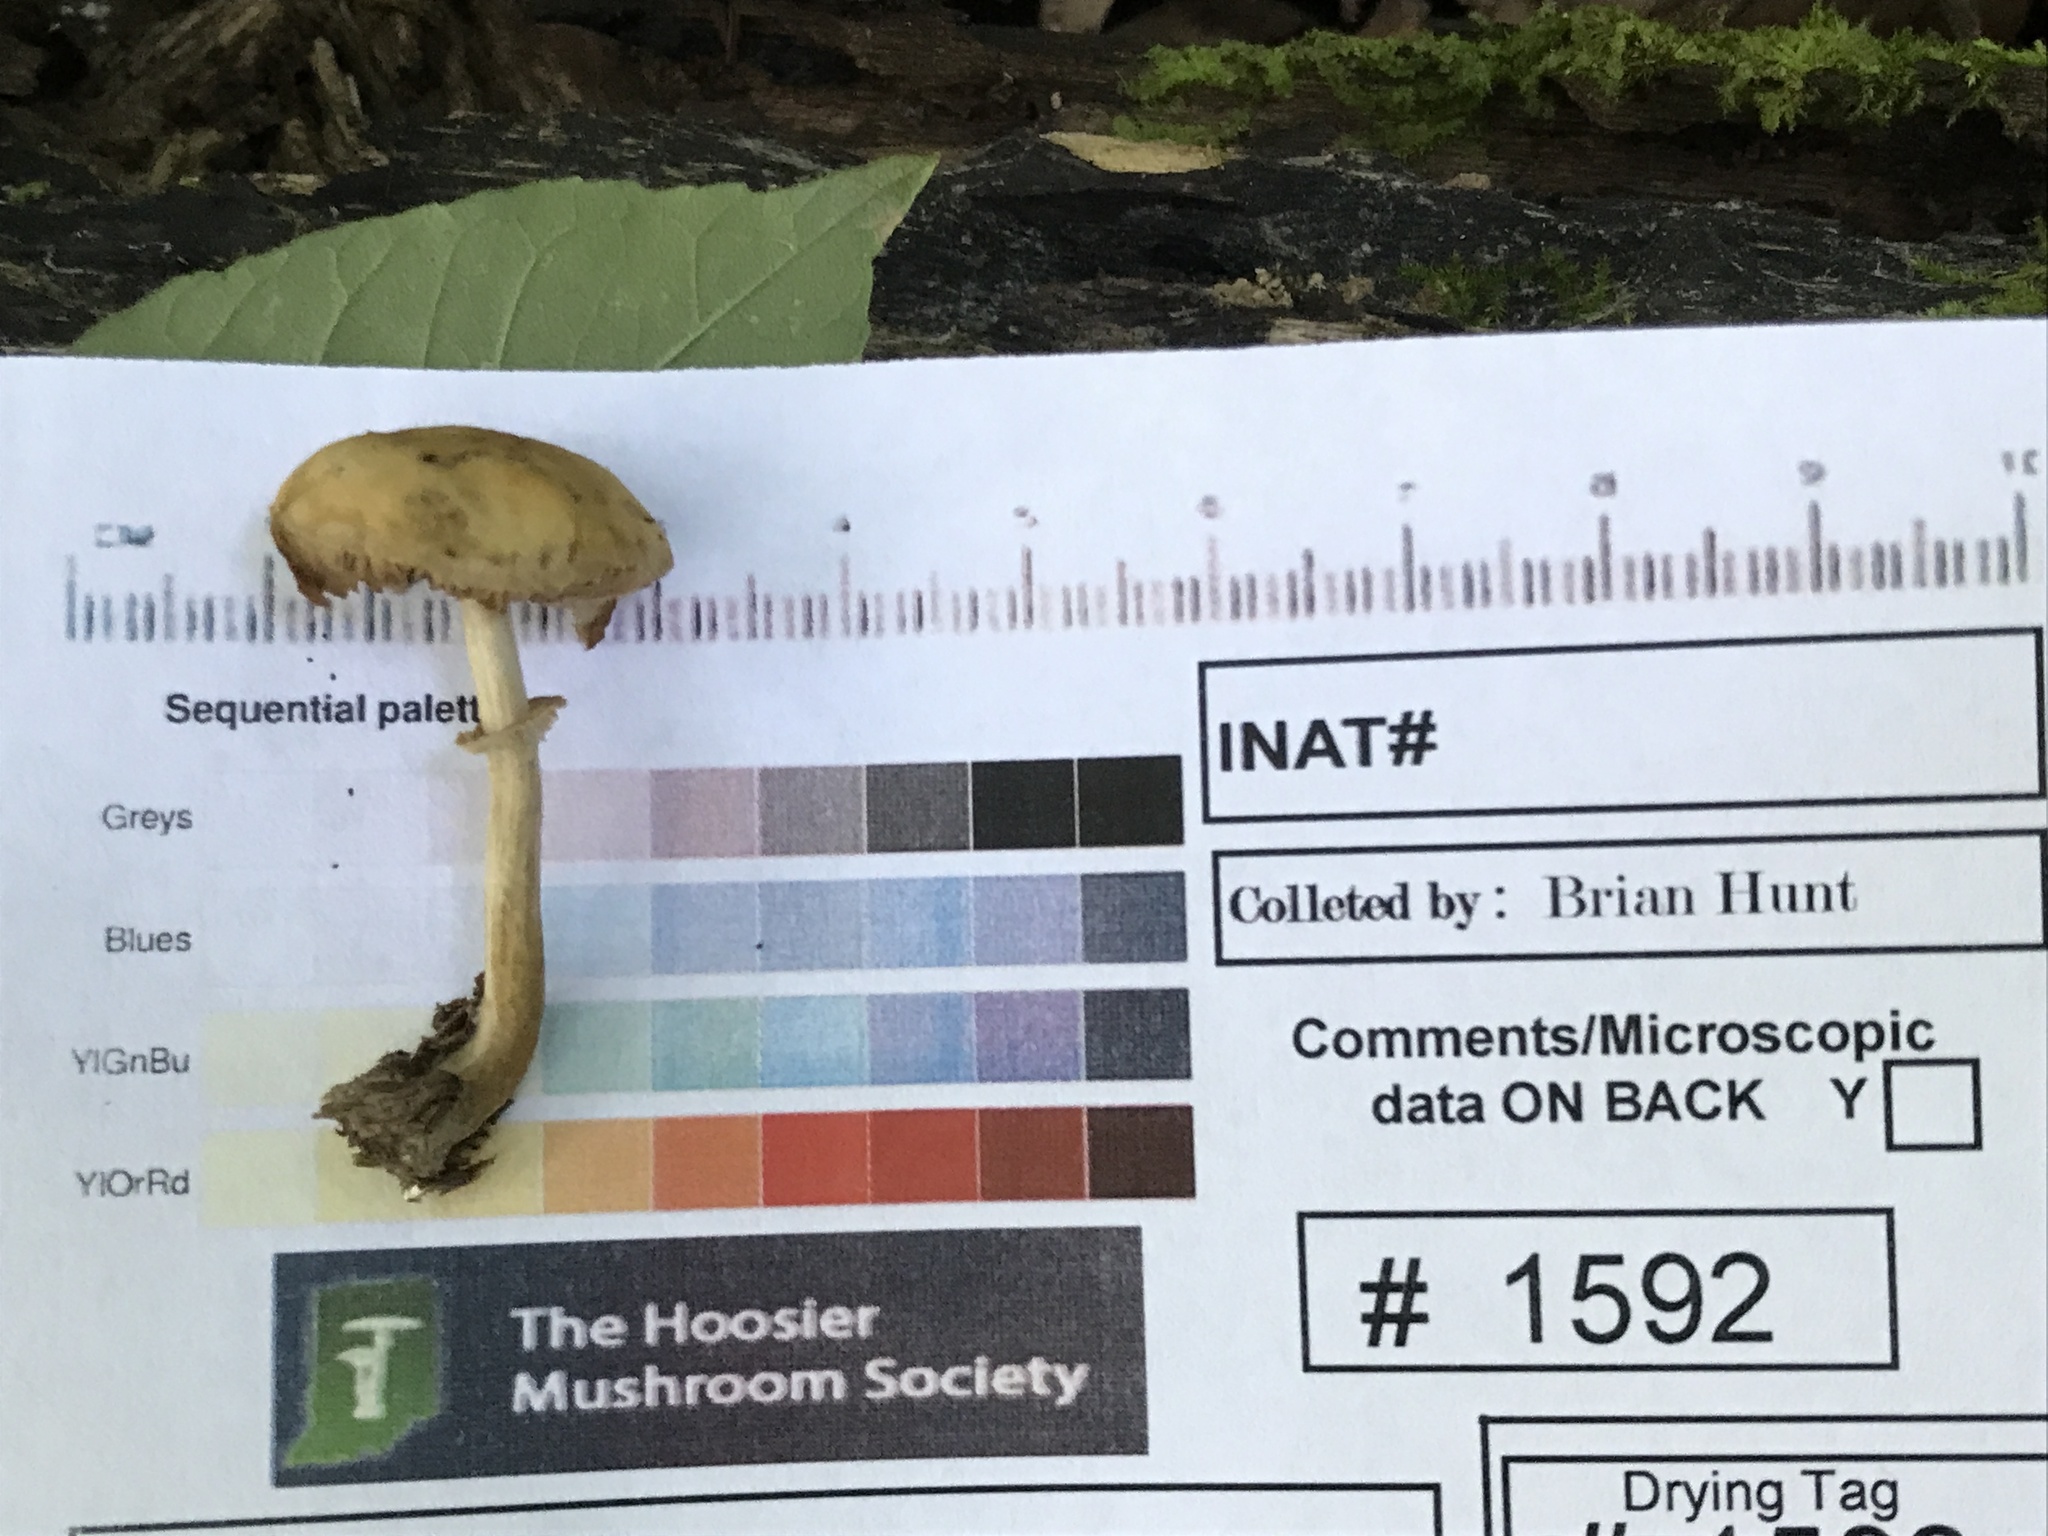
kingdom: Fungi
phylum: Basidiomycota
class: Agaricomycetes
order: Agaricales
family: Strophariaceae
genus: Agrocybe
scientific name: Agrocybe acericola
